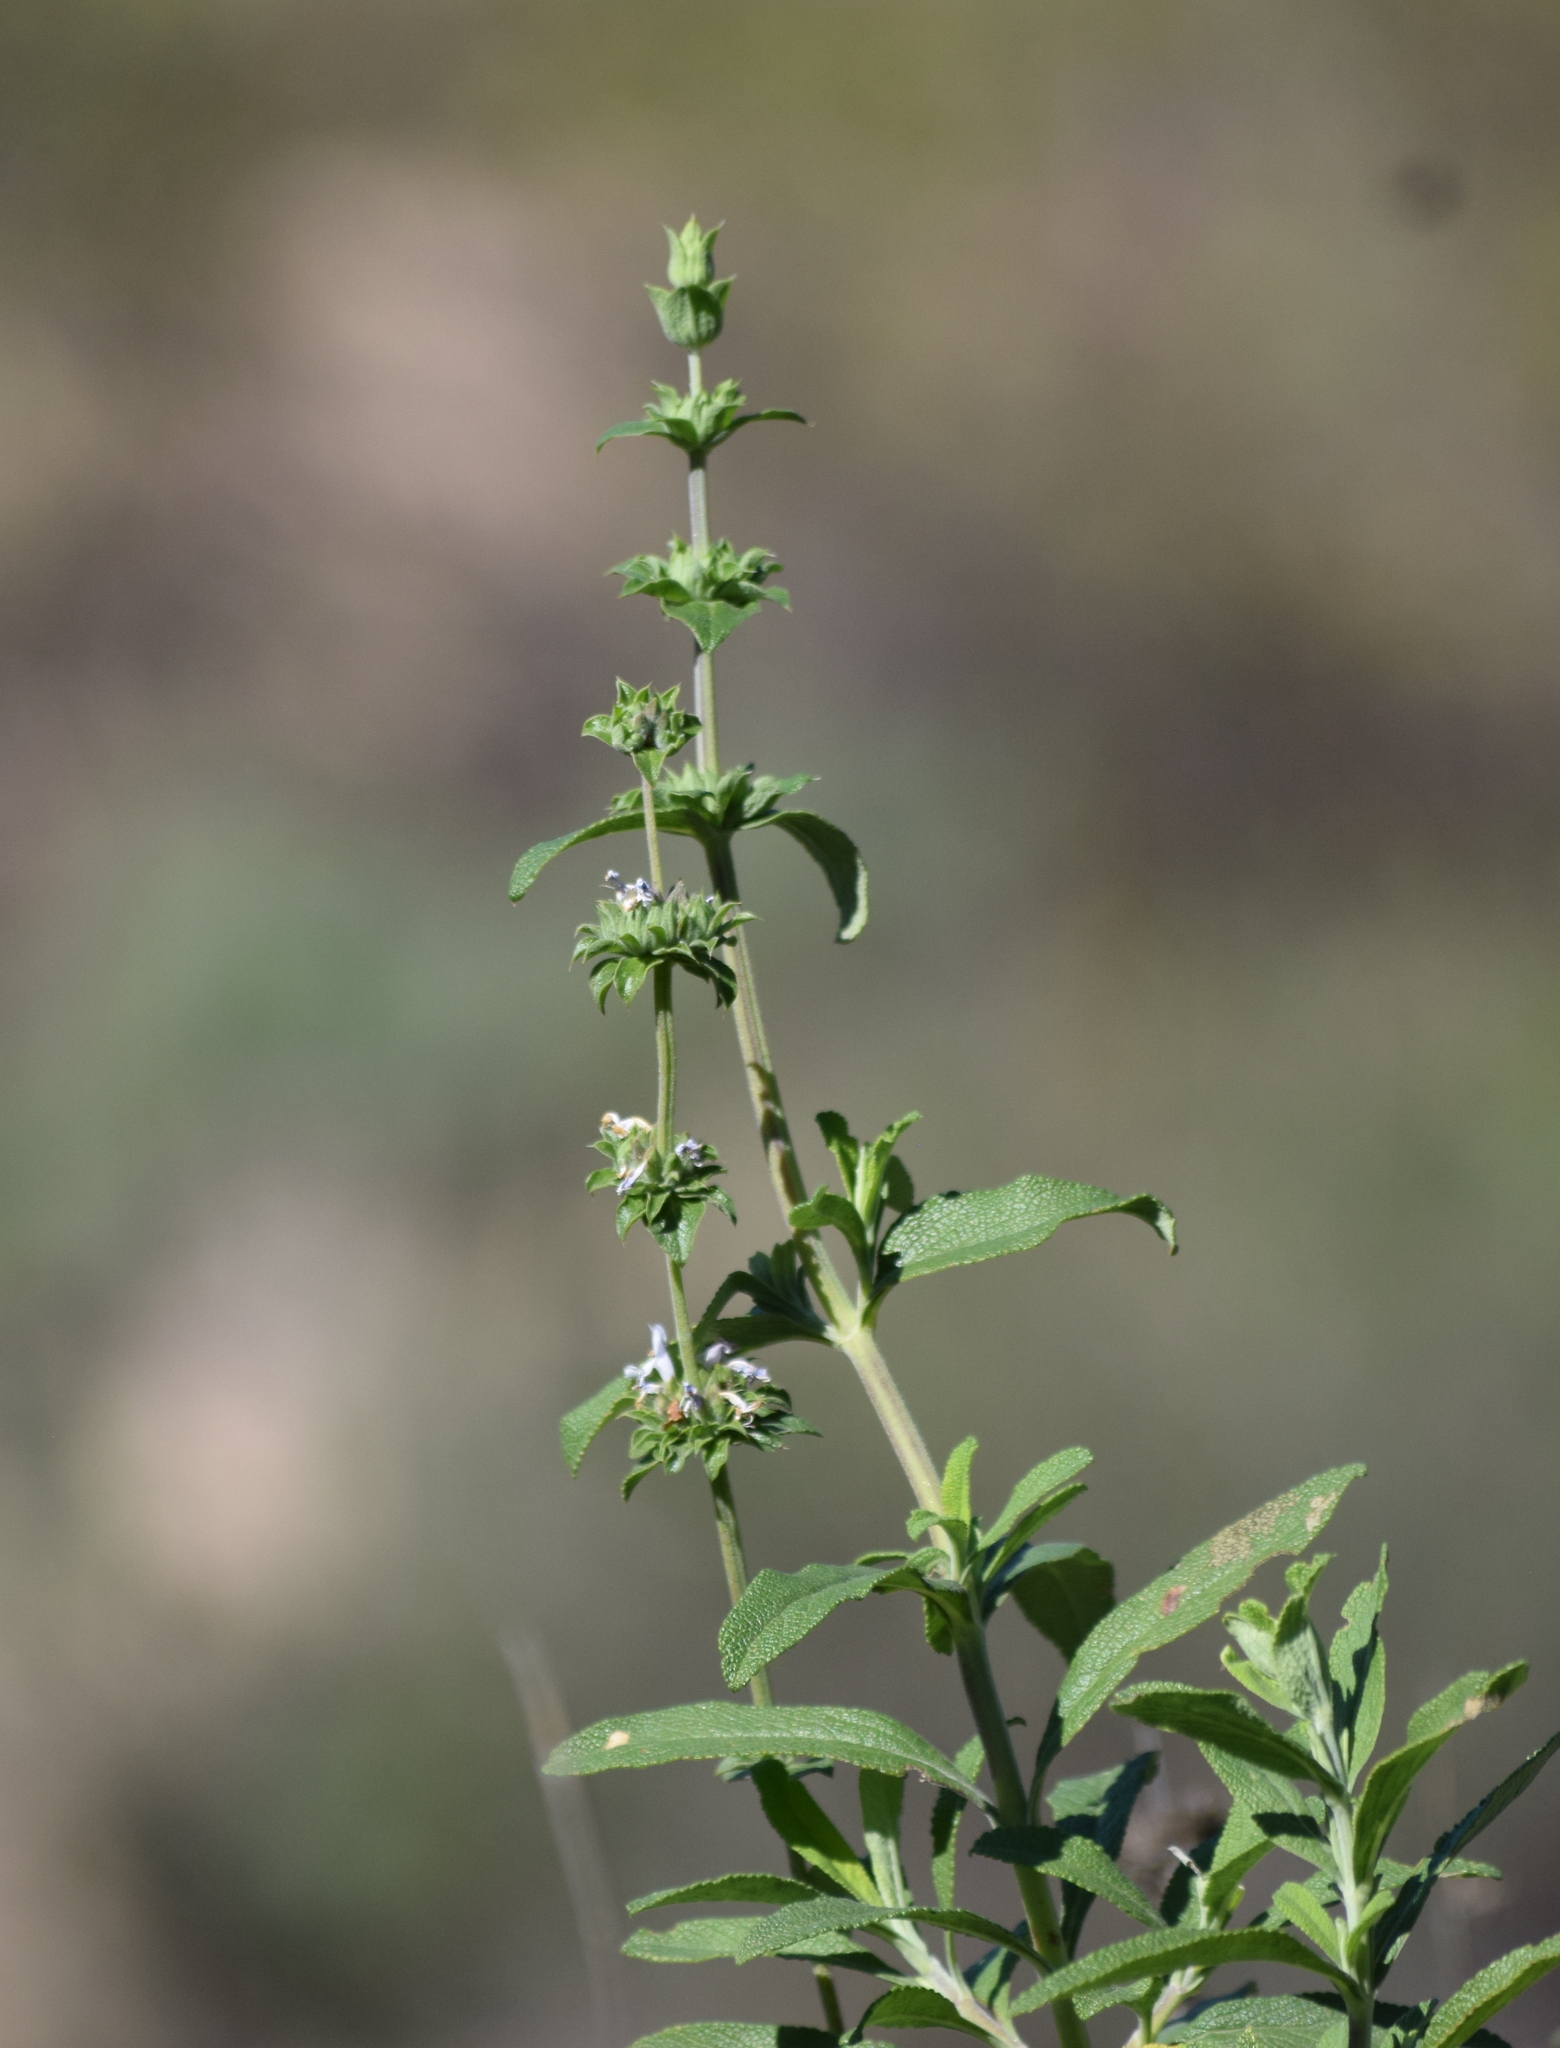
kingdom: Plantae
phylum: Tracheophyta
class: Magnoliopsida
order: Lamiales
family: Lamiaceae
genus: Salvia
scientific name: Salvia mellifera
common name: Black sage
